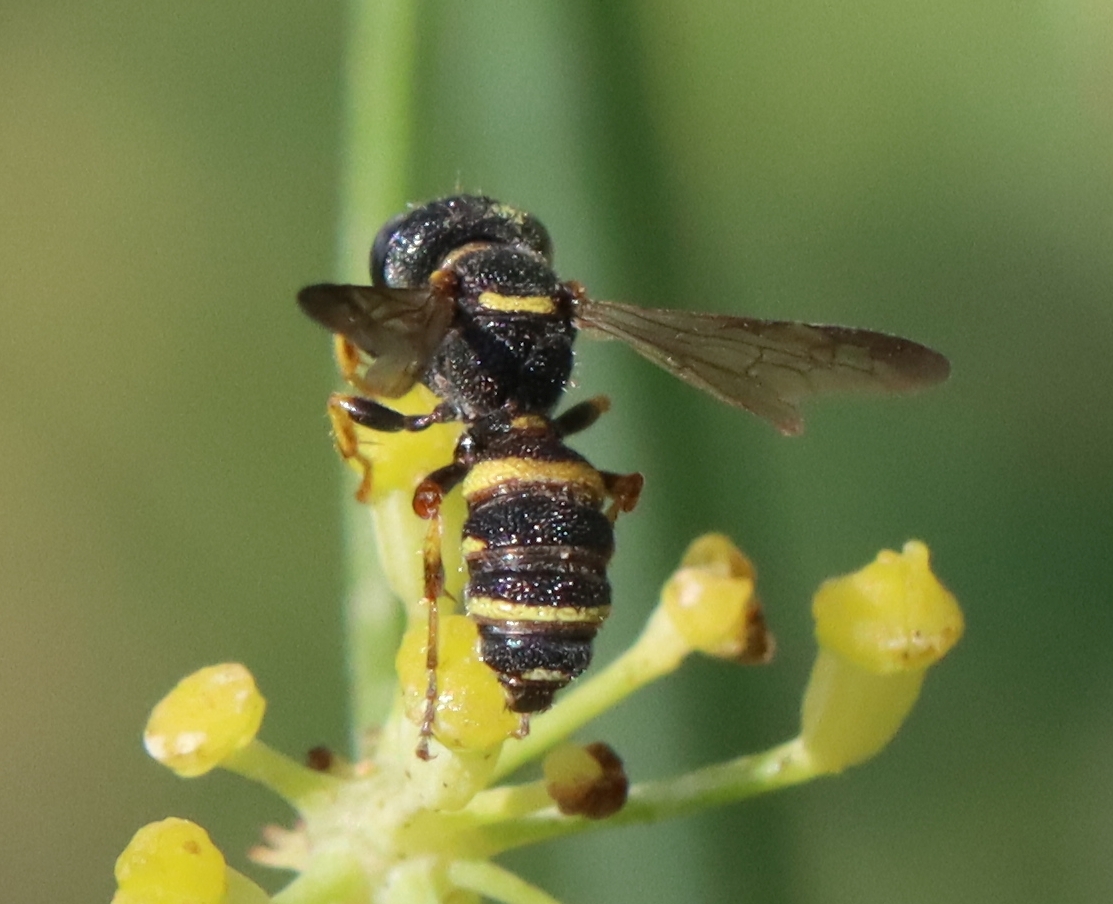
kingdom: Animalia
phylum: Arthropoda
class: Insecta
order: Hymenoptera
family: Crabronidae
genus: Cerceris
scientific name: Cerceris kennicottii
